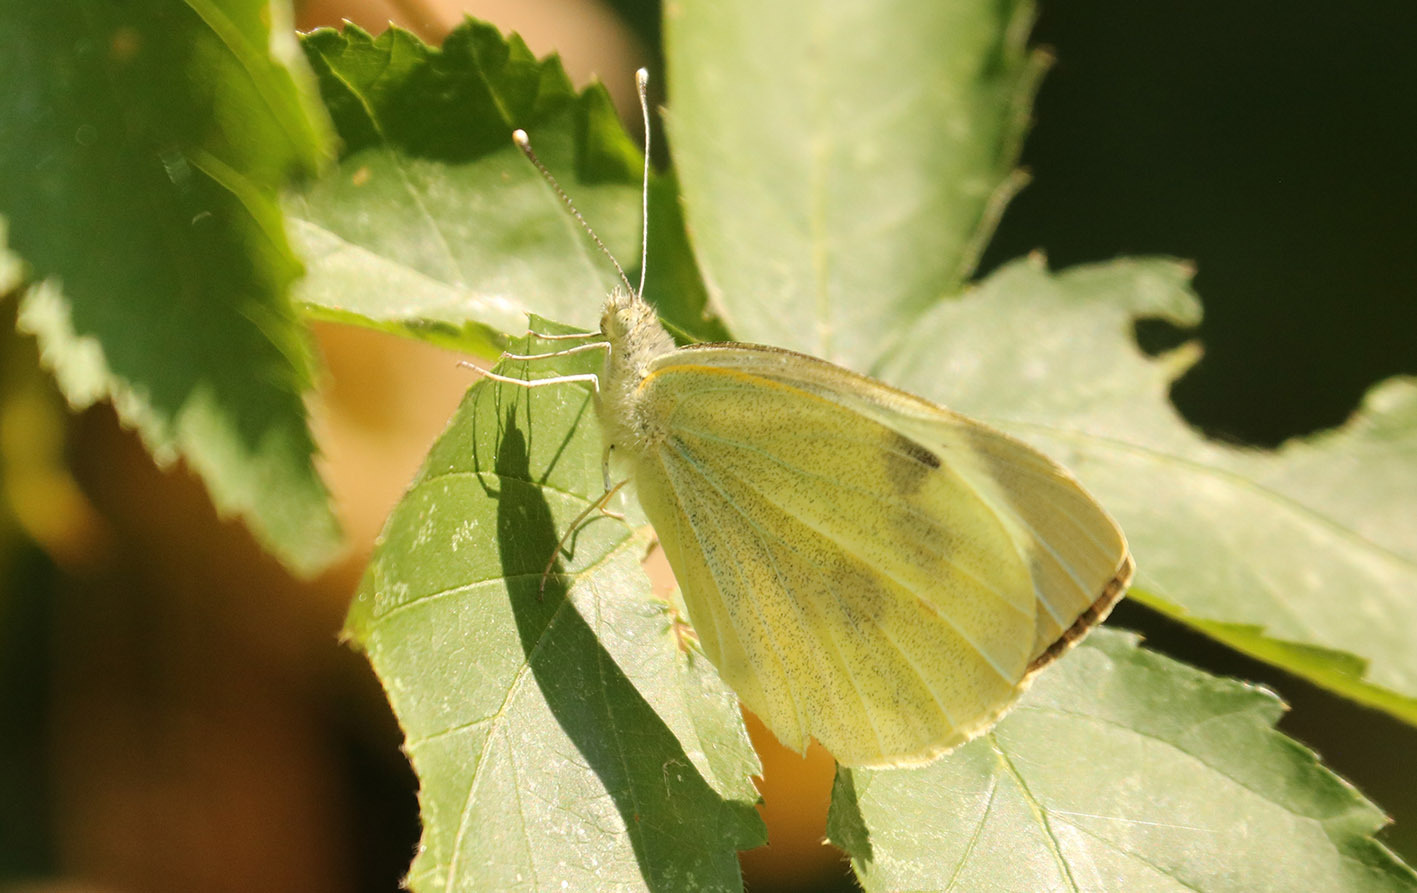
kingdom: Animalia
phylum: Arthropoda
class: Insecta
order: Lepidoptera
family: Pieridae
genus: Pieris
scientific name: Pieris brassicae
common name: Large white
